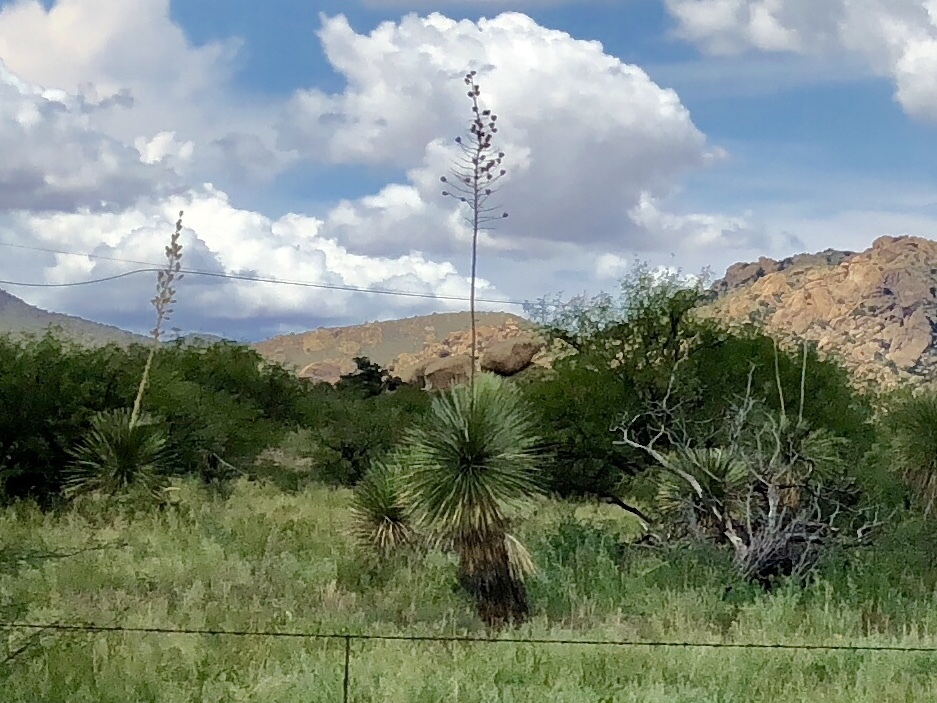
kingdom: Plantae
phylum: Tracheophyta
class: Liliopsida
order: Asparagales
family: Asparagaceae
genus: Yucca
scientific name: Yucca elata
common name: Palmella
